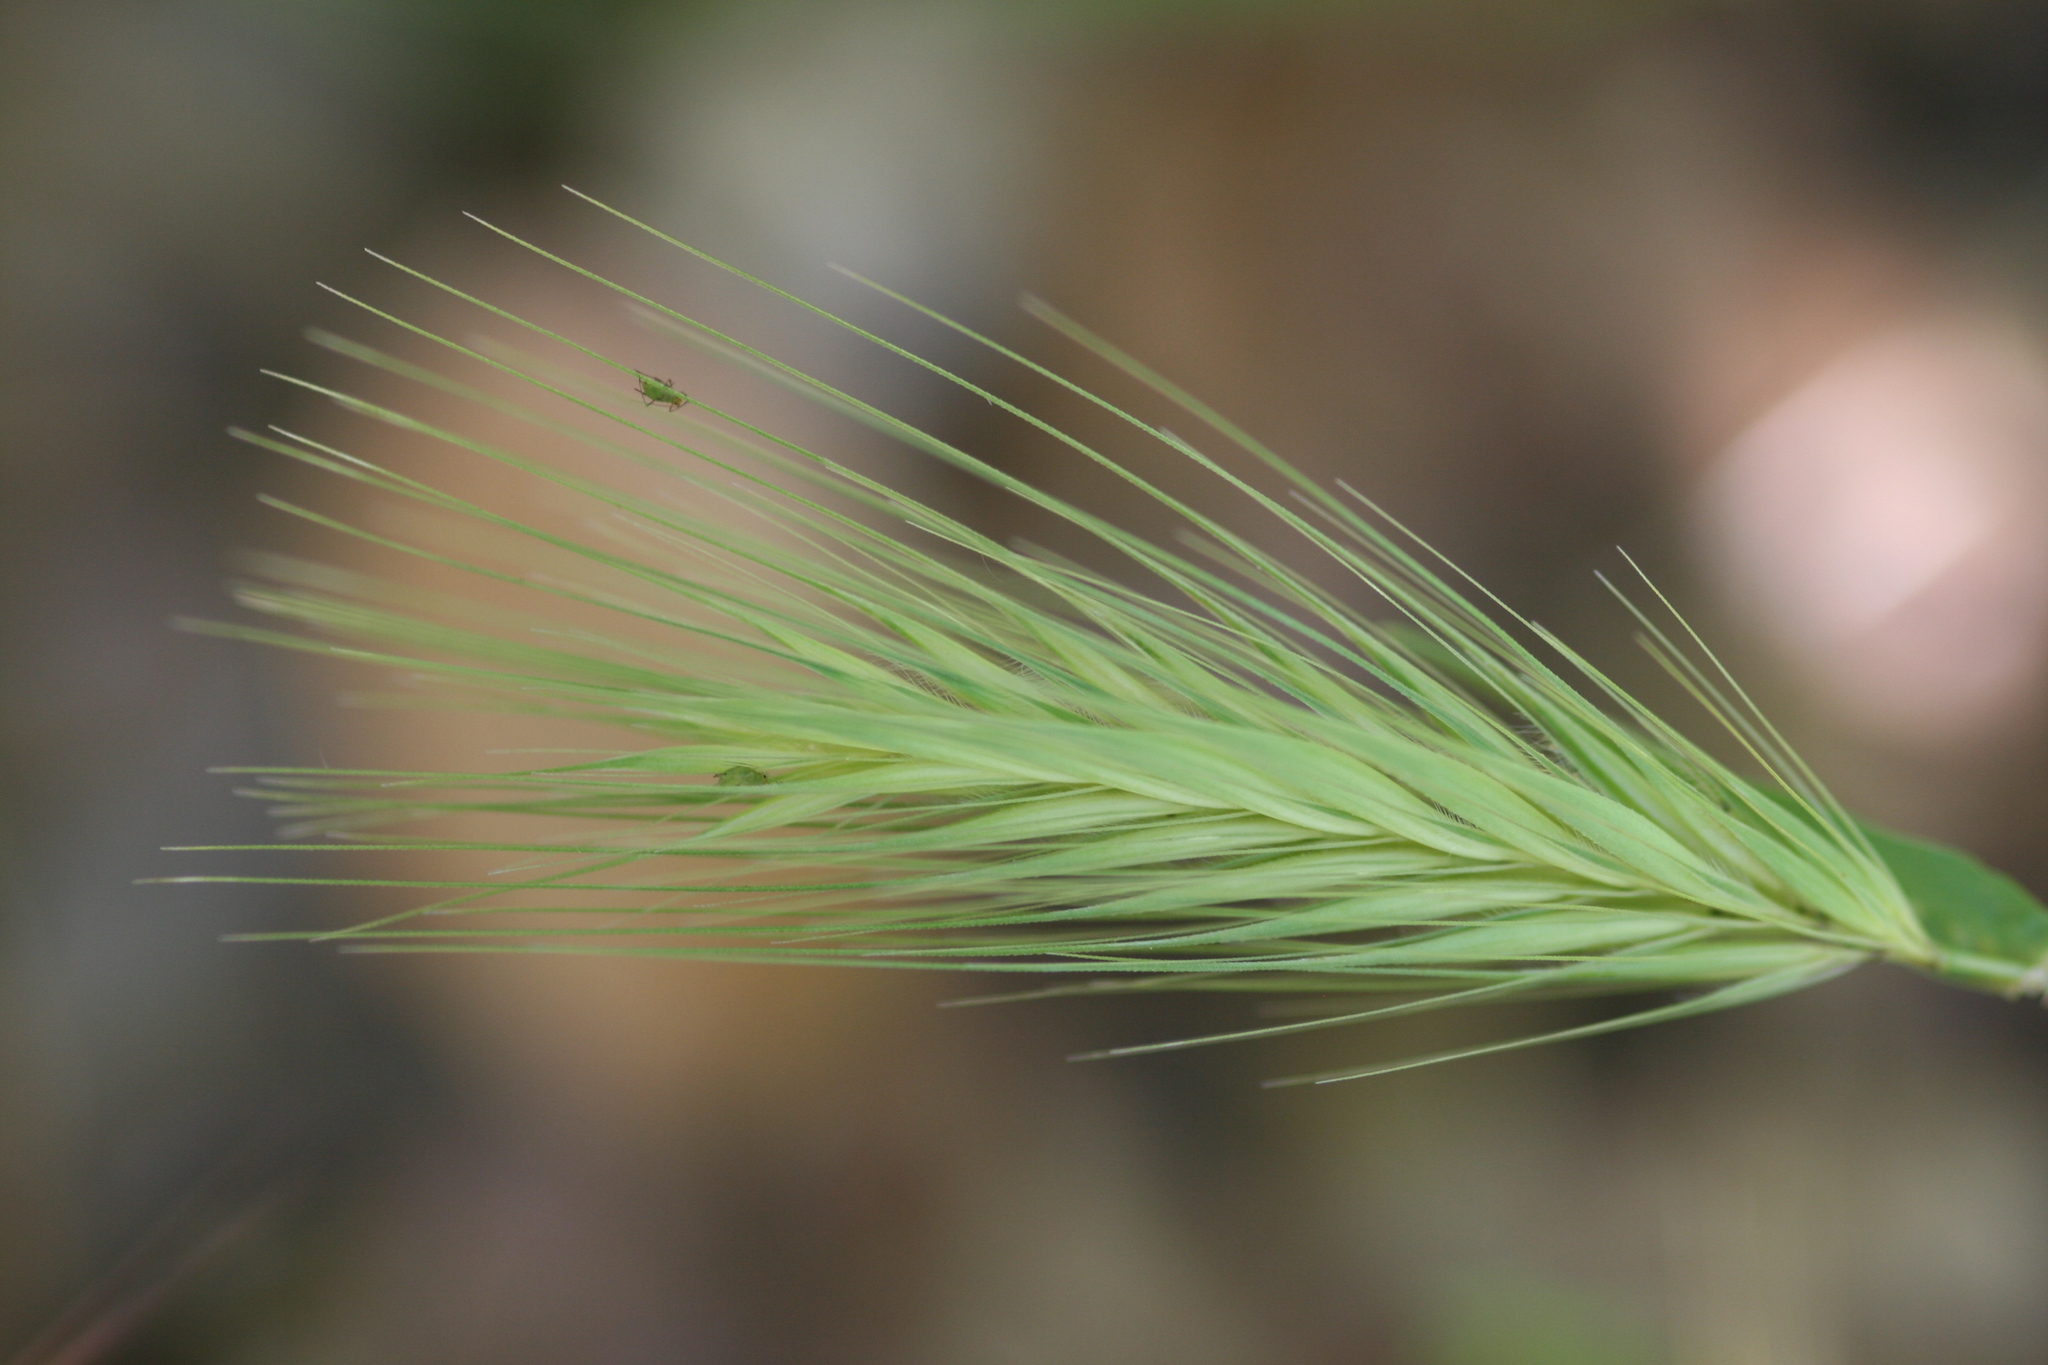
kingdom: Plantae
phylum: Tracheophyta
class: Liliopsida
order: Poales
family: Poaceae
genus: Hordeum
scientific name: Hordeum murinum
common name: Wall barley
